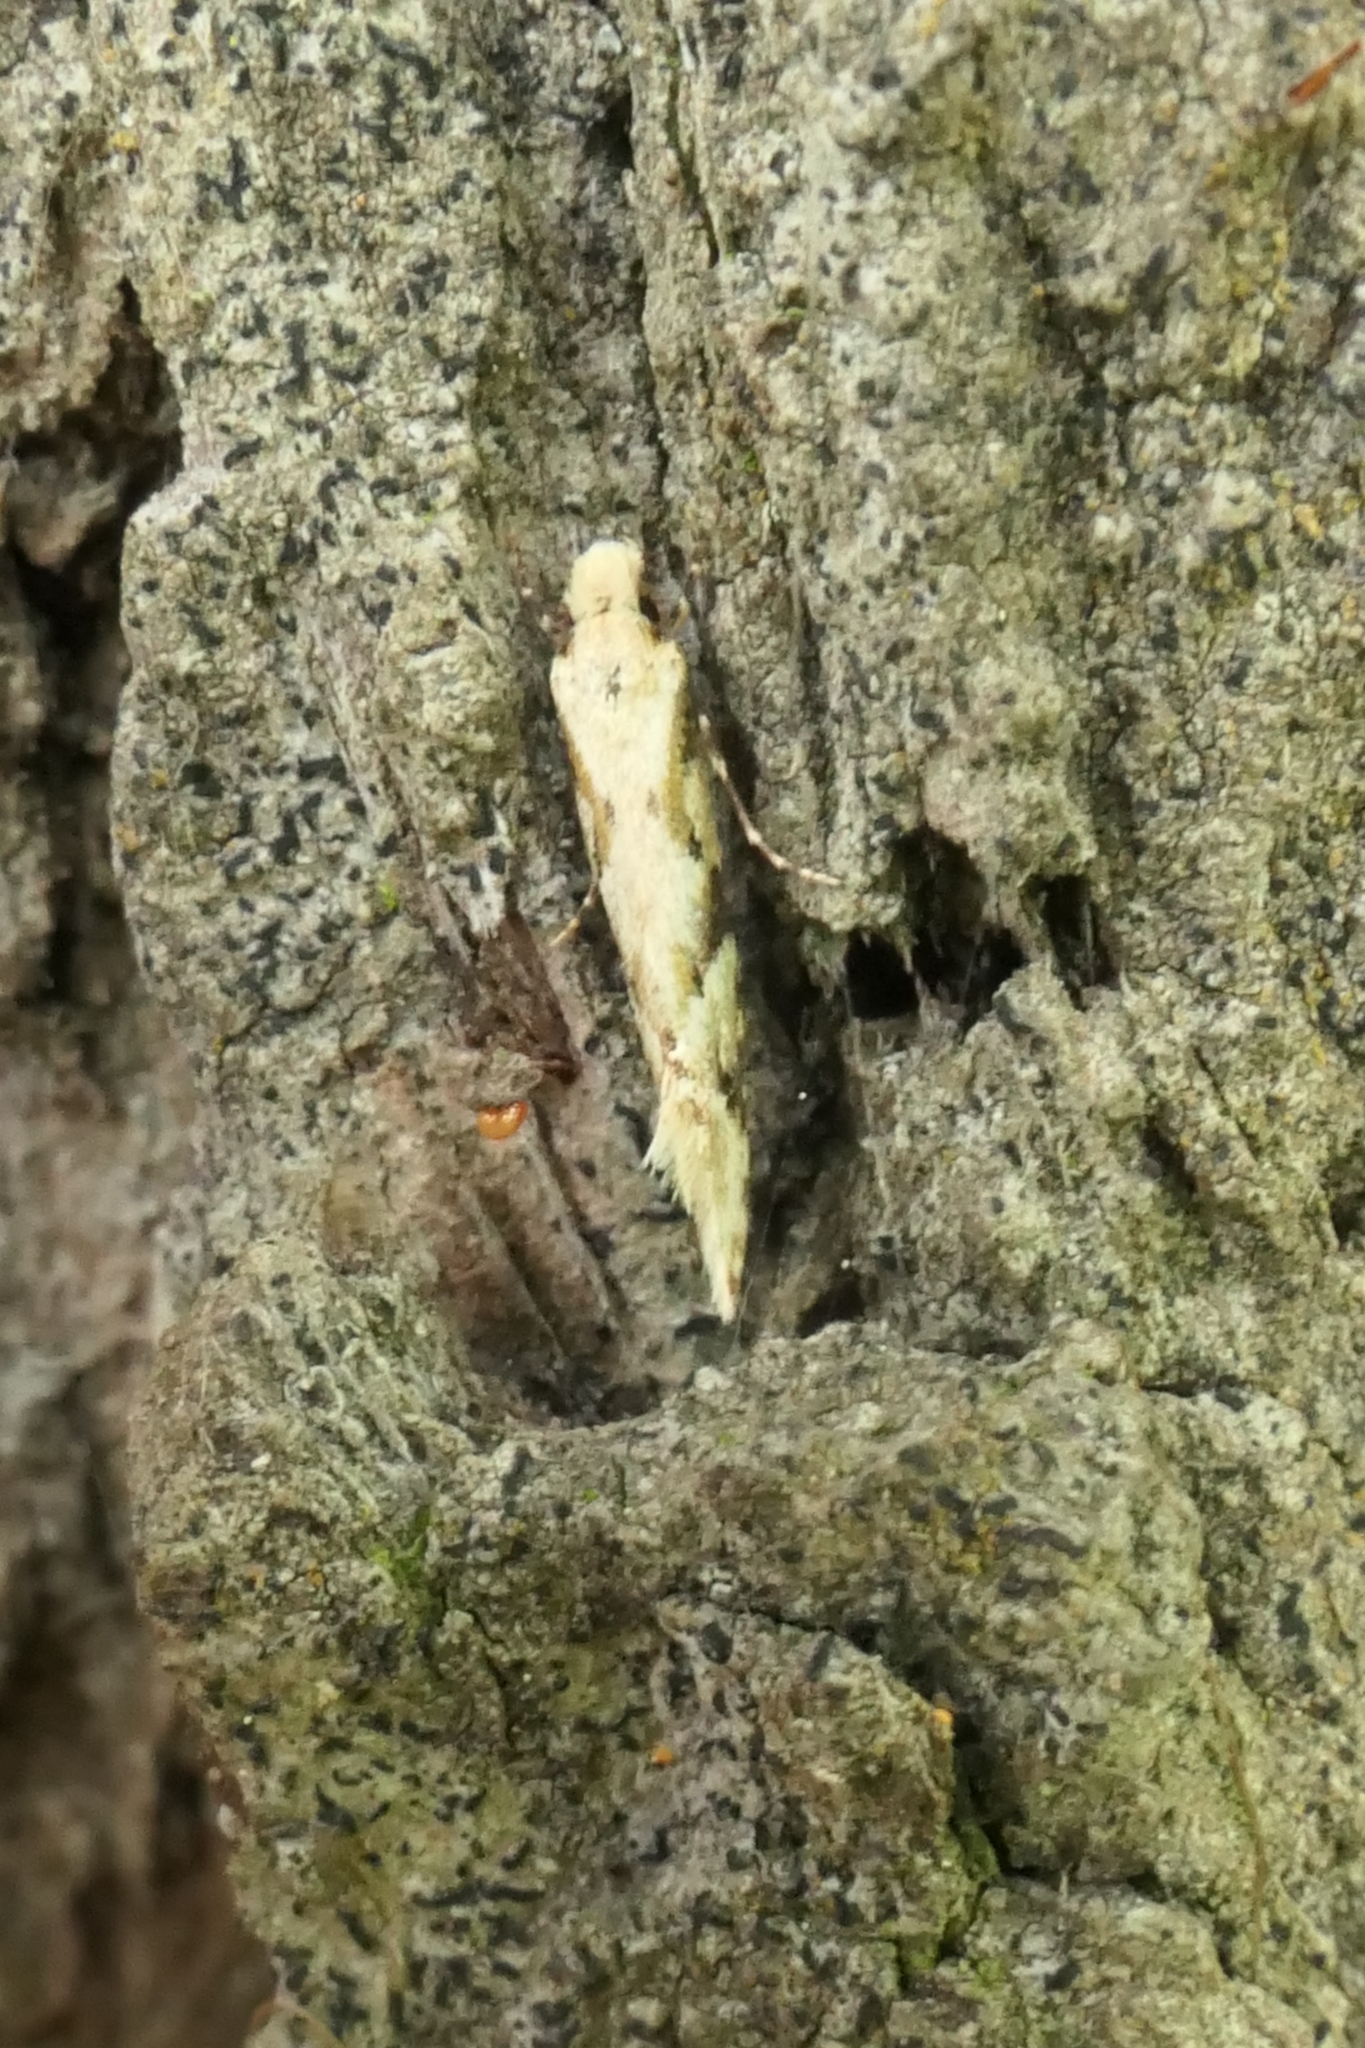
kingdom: Animalia
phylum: Arthropoda
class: Insecta
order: Lepidoptera
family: Tineidae
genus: Crypsitricha
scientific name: Crypsitricha mesotypa
